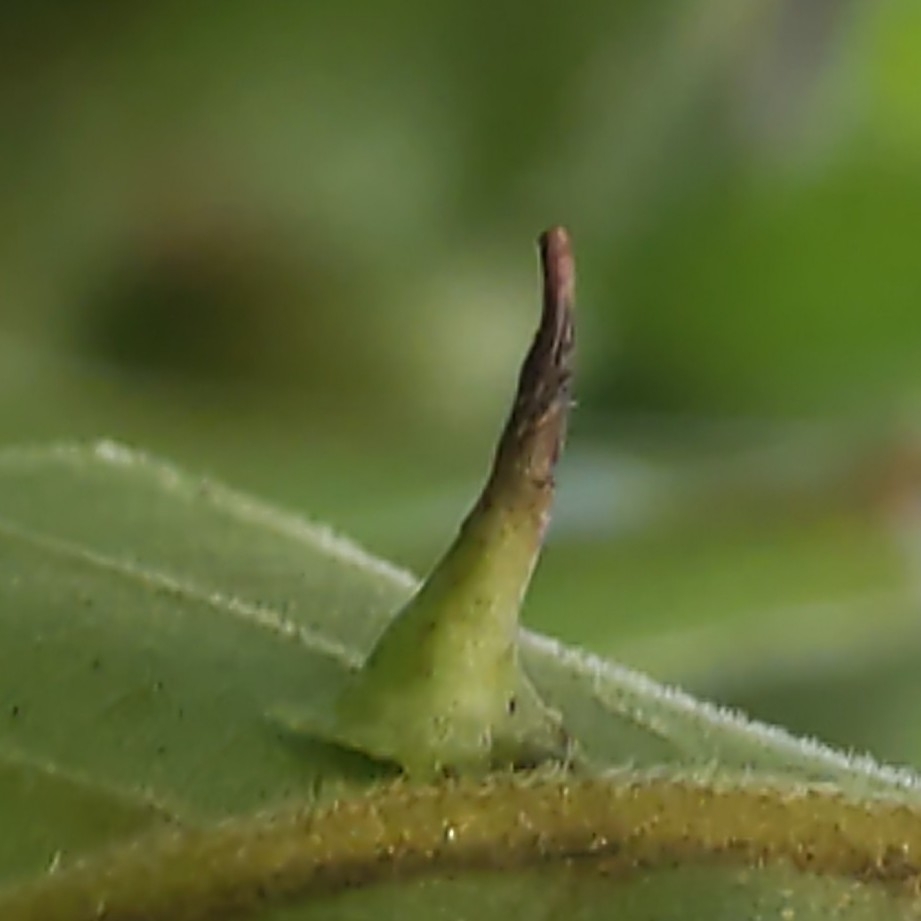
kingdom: Animalia
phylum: Arthropoda
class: Insecta
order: Diptera
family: Cecidomyiidae
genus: Caryomyia
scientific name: Caryomyia stellata
